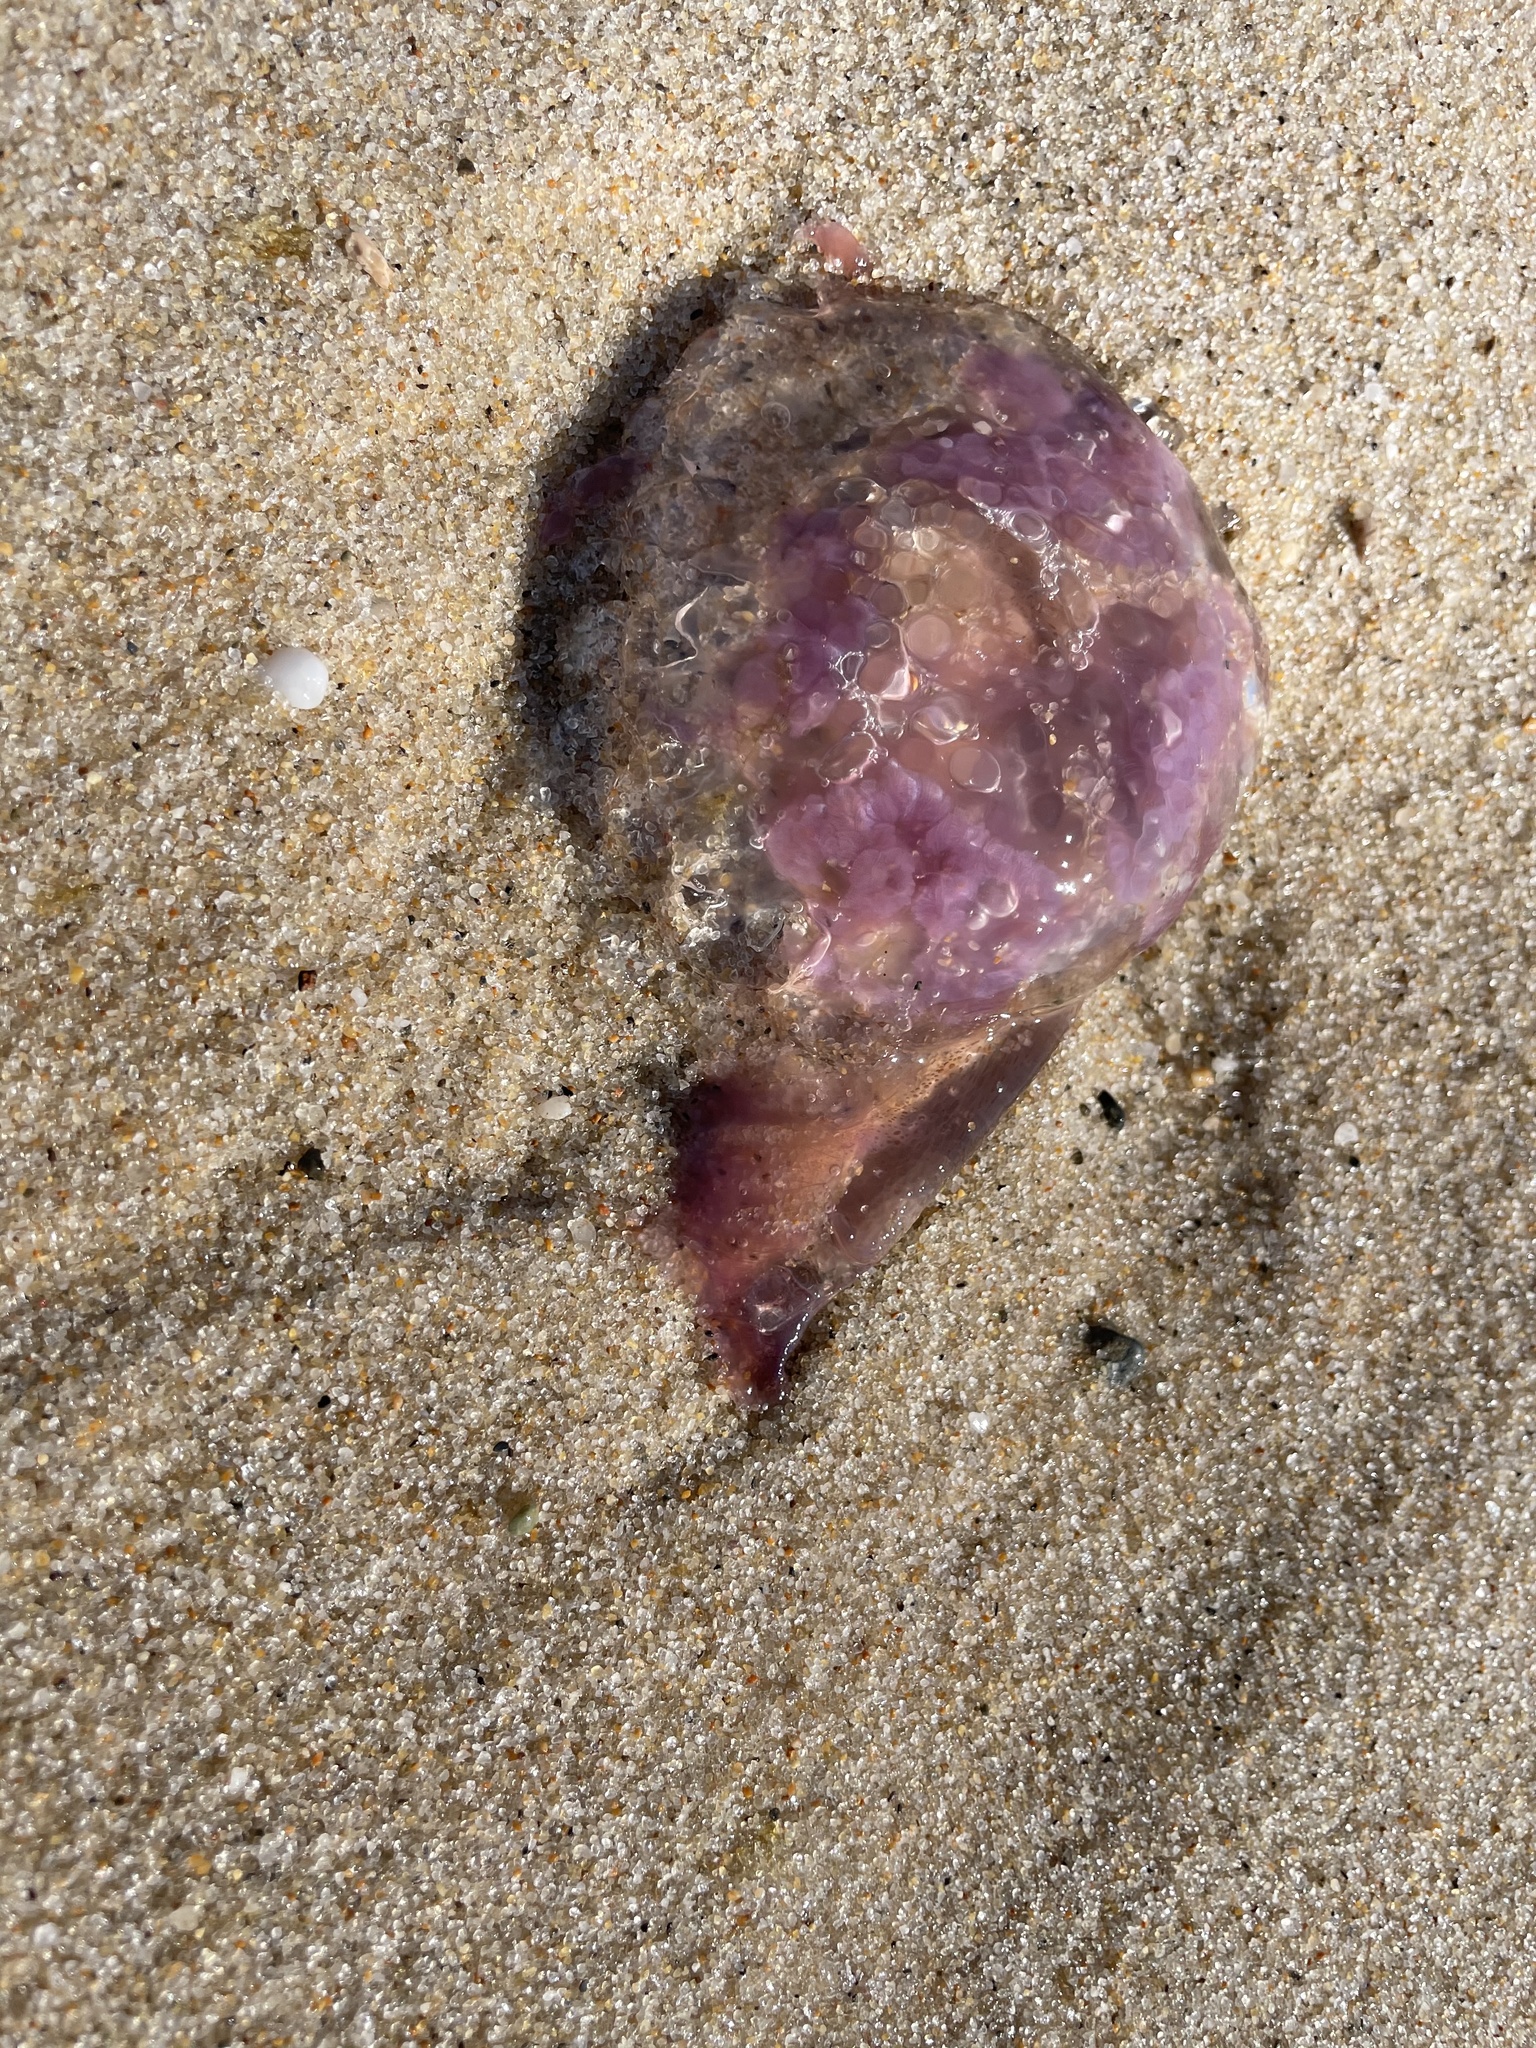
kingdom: Animalia
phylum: Cnidaria
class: Scyphozoa
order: Semaeostomeae
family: Pelagiidae
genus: Pelagia
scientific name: Pelagia noctiluca
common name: Mauve stinger
